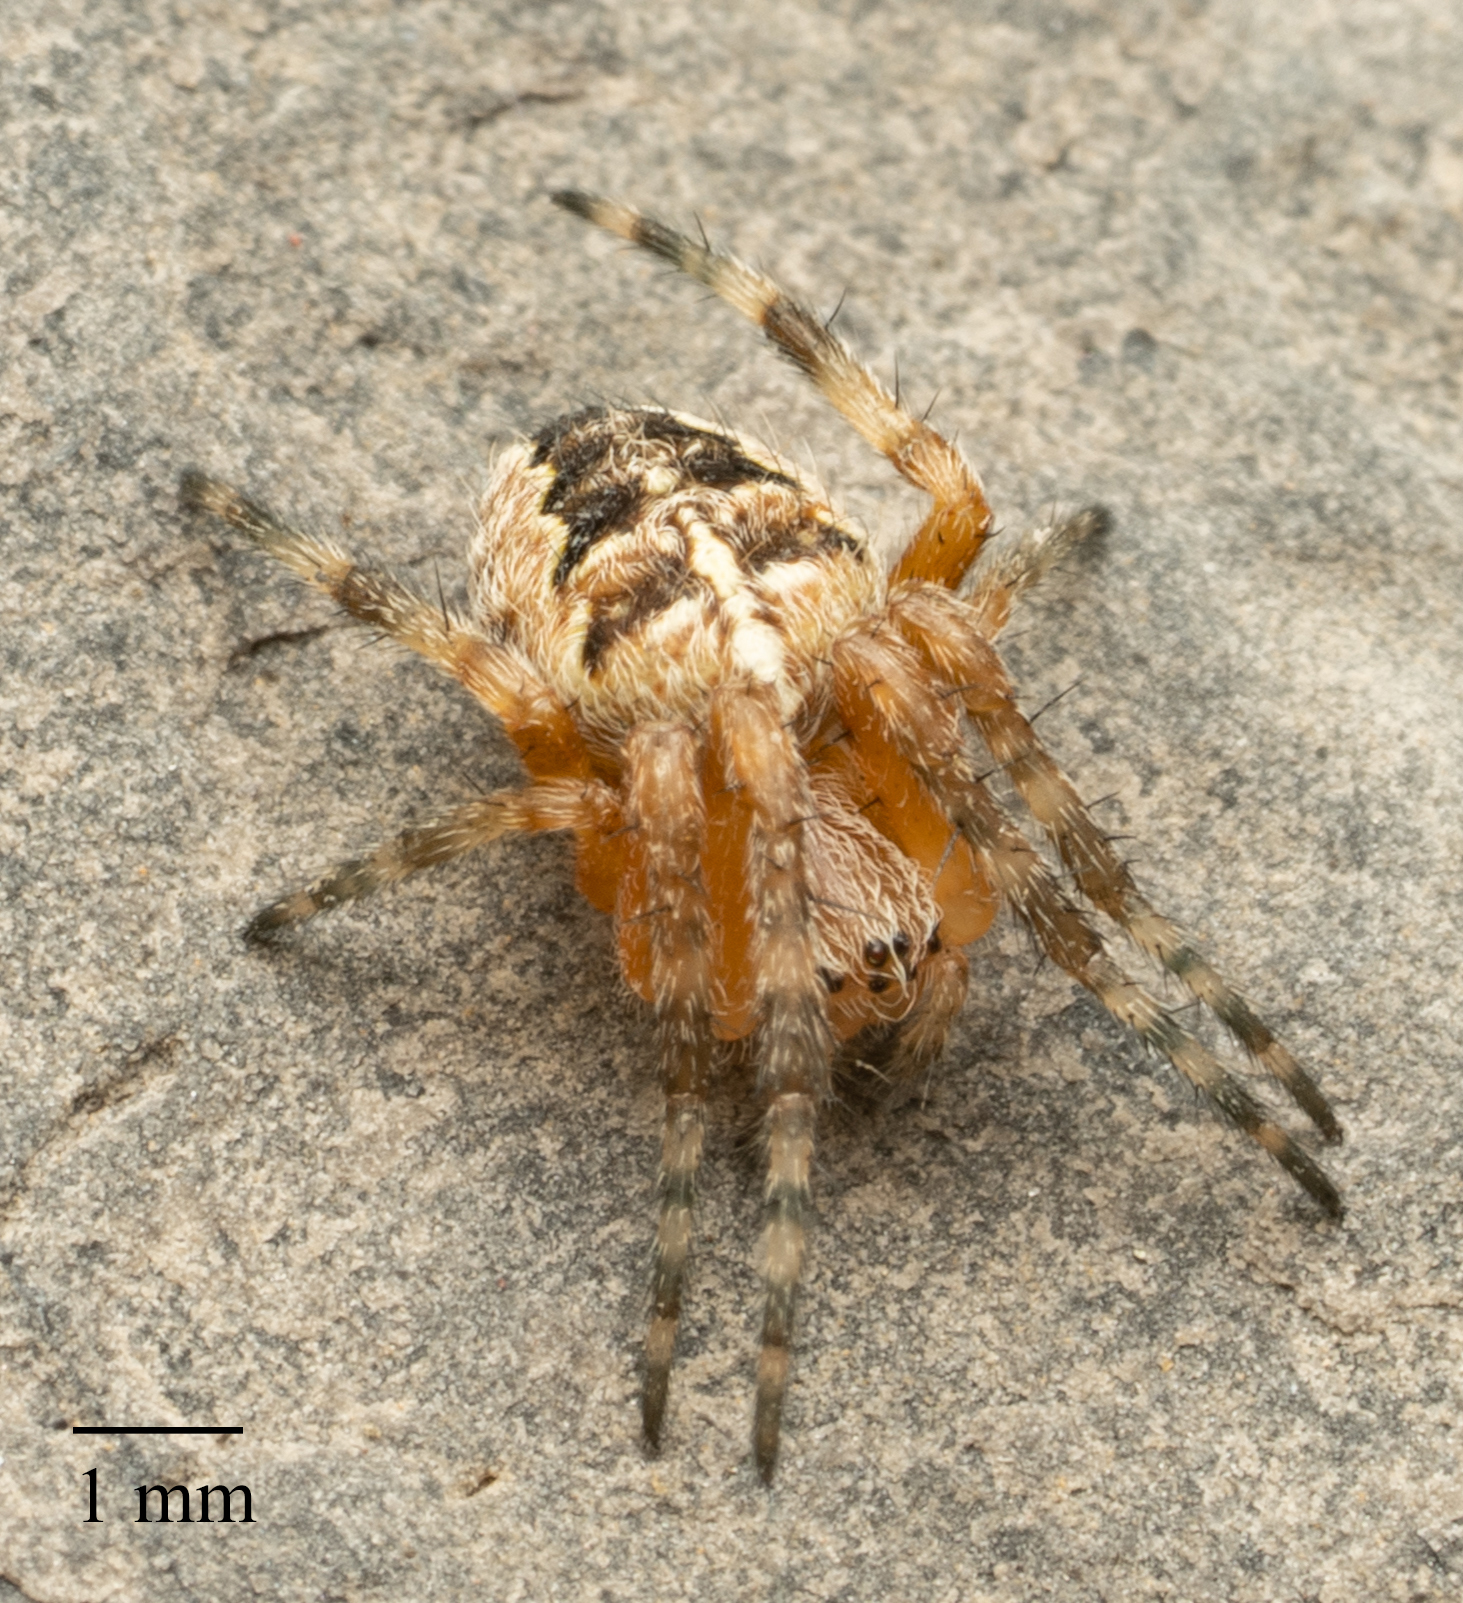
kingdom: Animalia
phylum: Arthropoda
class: Arachnida
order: Araneae
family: Araneidae
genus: Araneus
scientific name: Araneus diadematus
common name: Cross orbweaver
